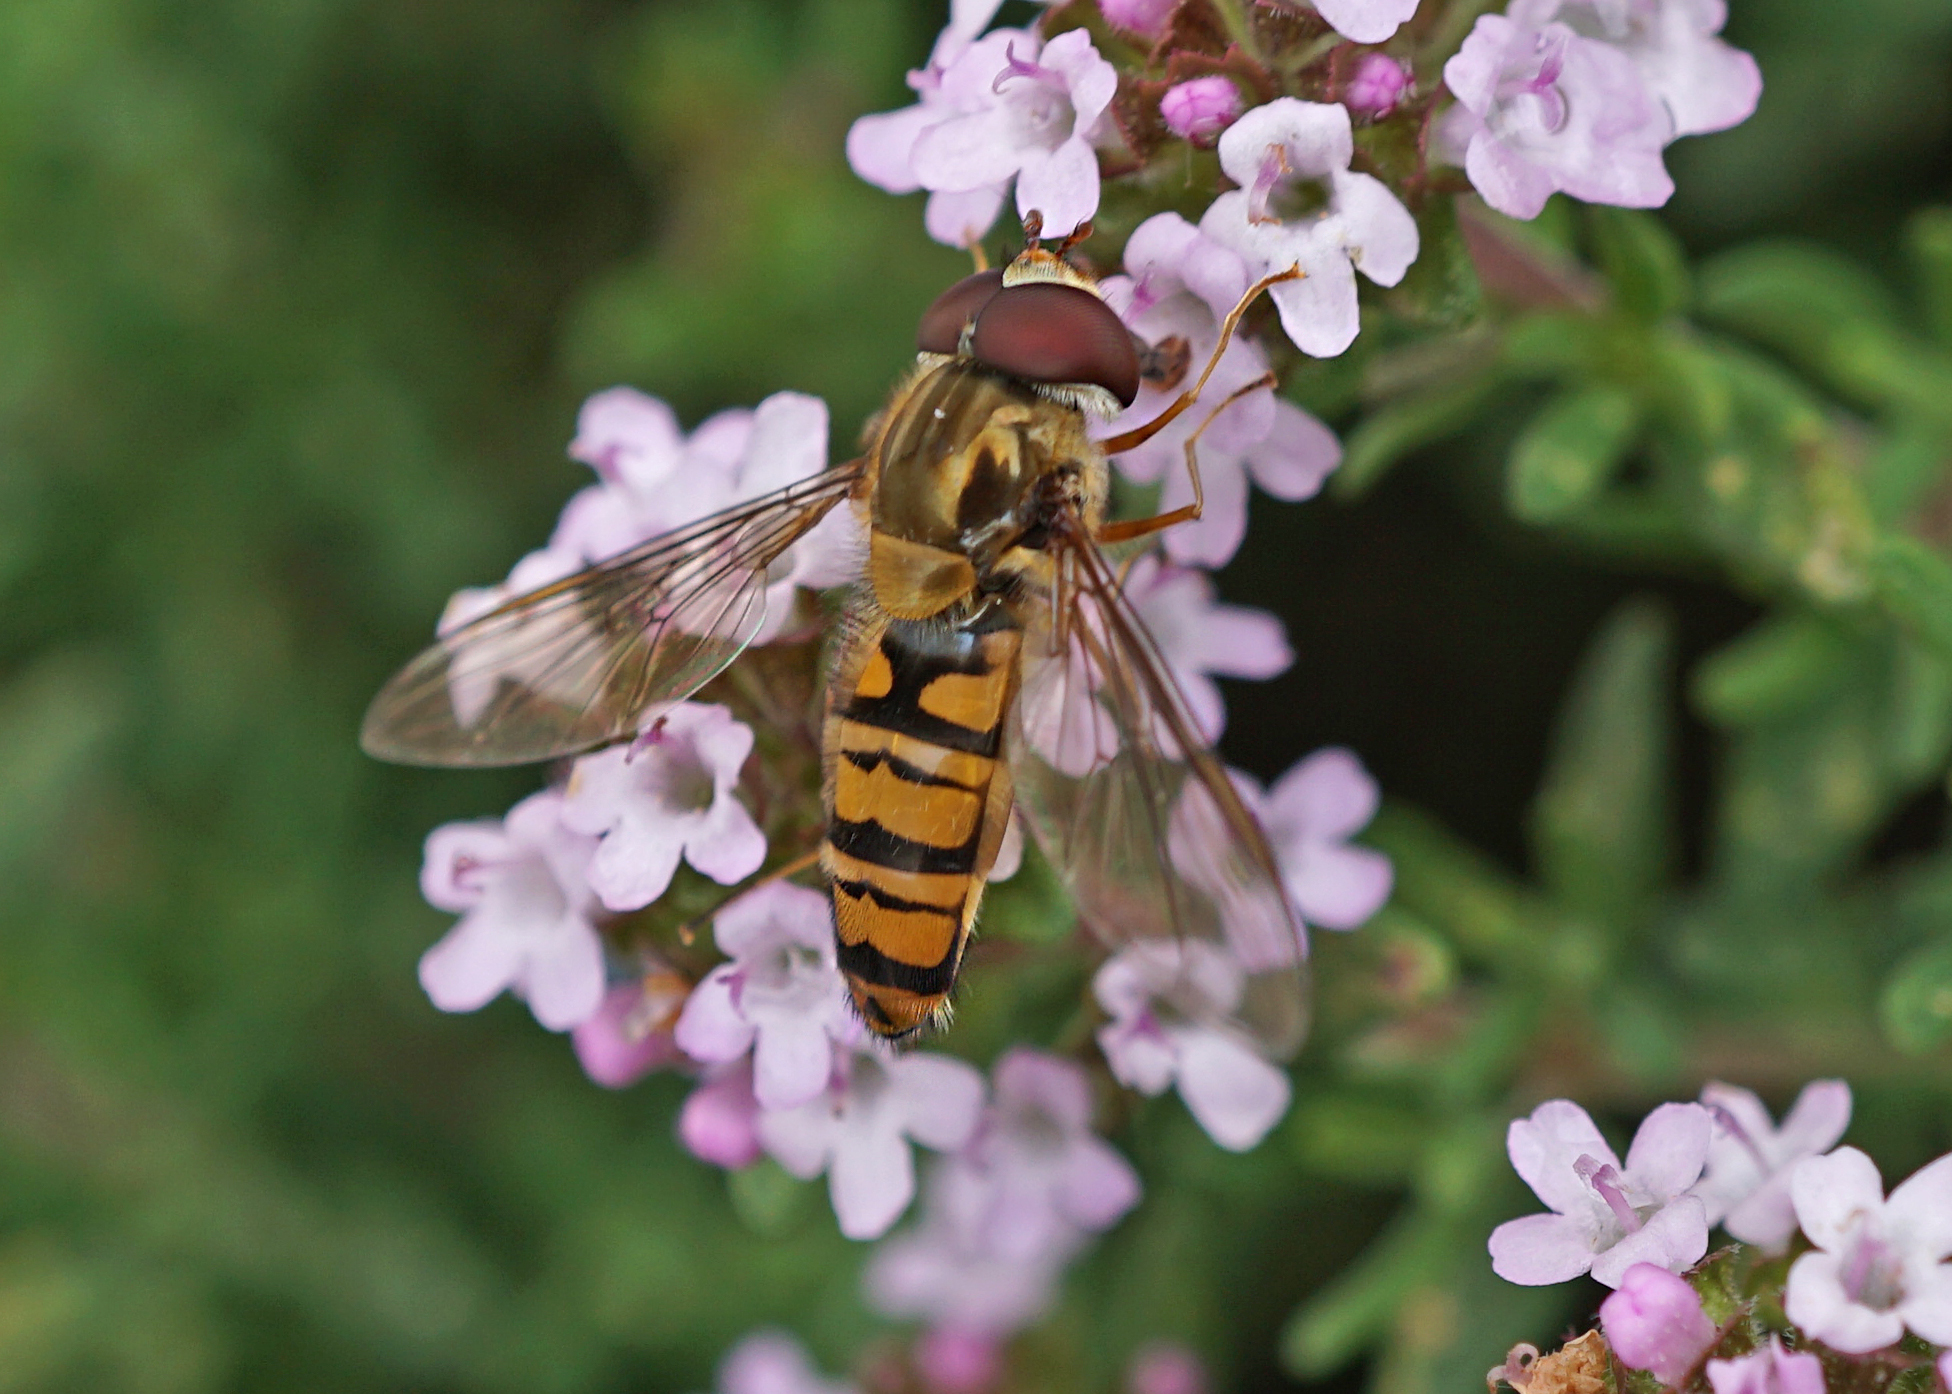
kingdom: Animalia
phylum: Arthropoda
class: Insecta
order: Diptera
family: Syrphidae
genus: Episyrphus
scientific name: Episyrphus balteatus
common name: Marmalade hoverfly
